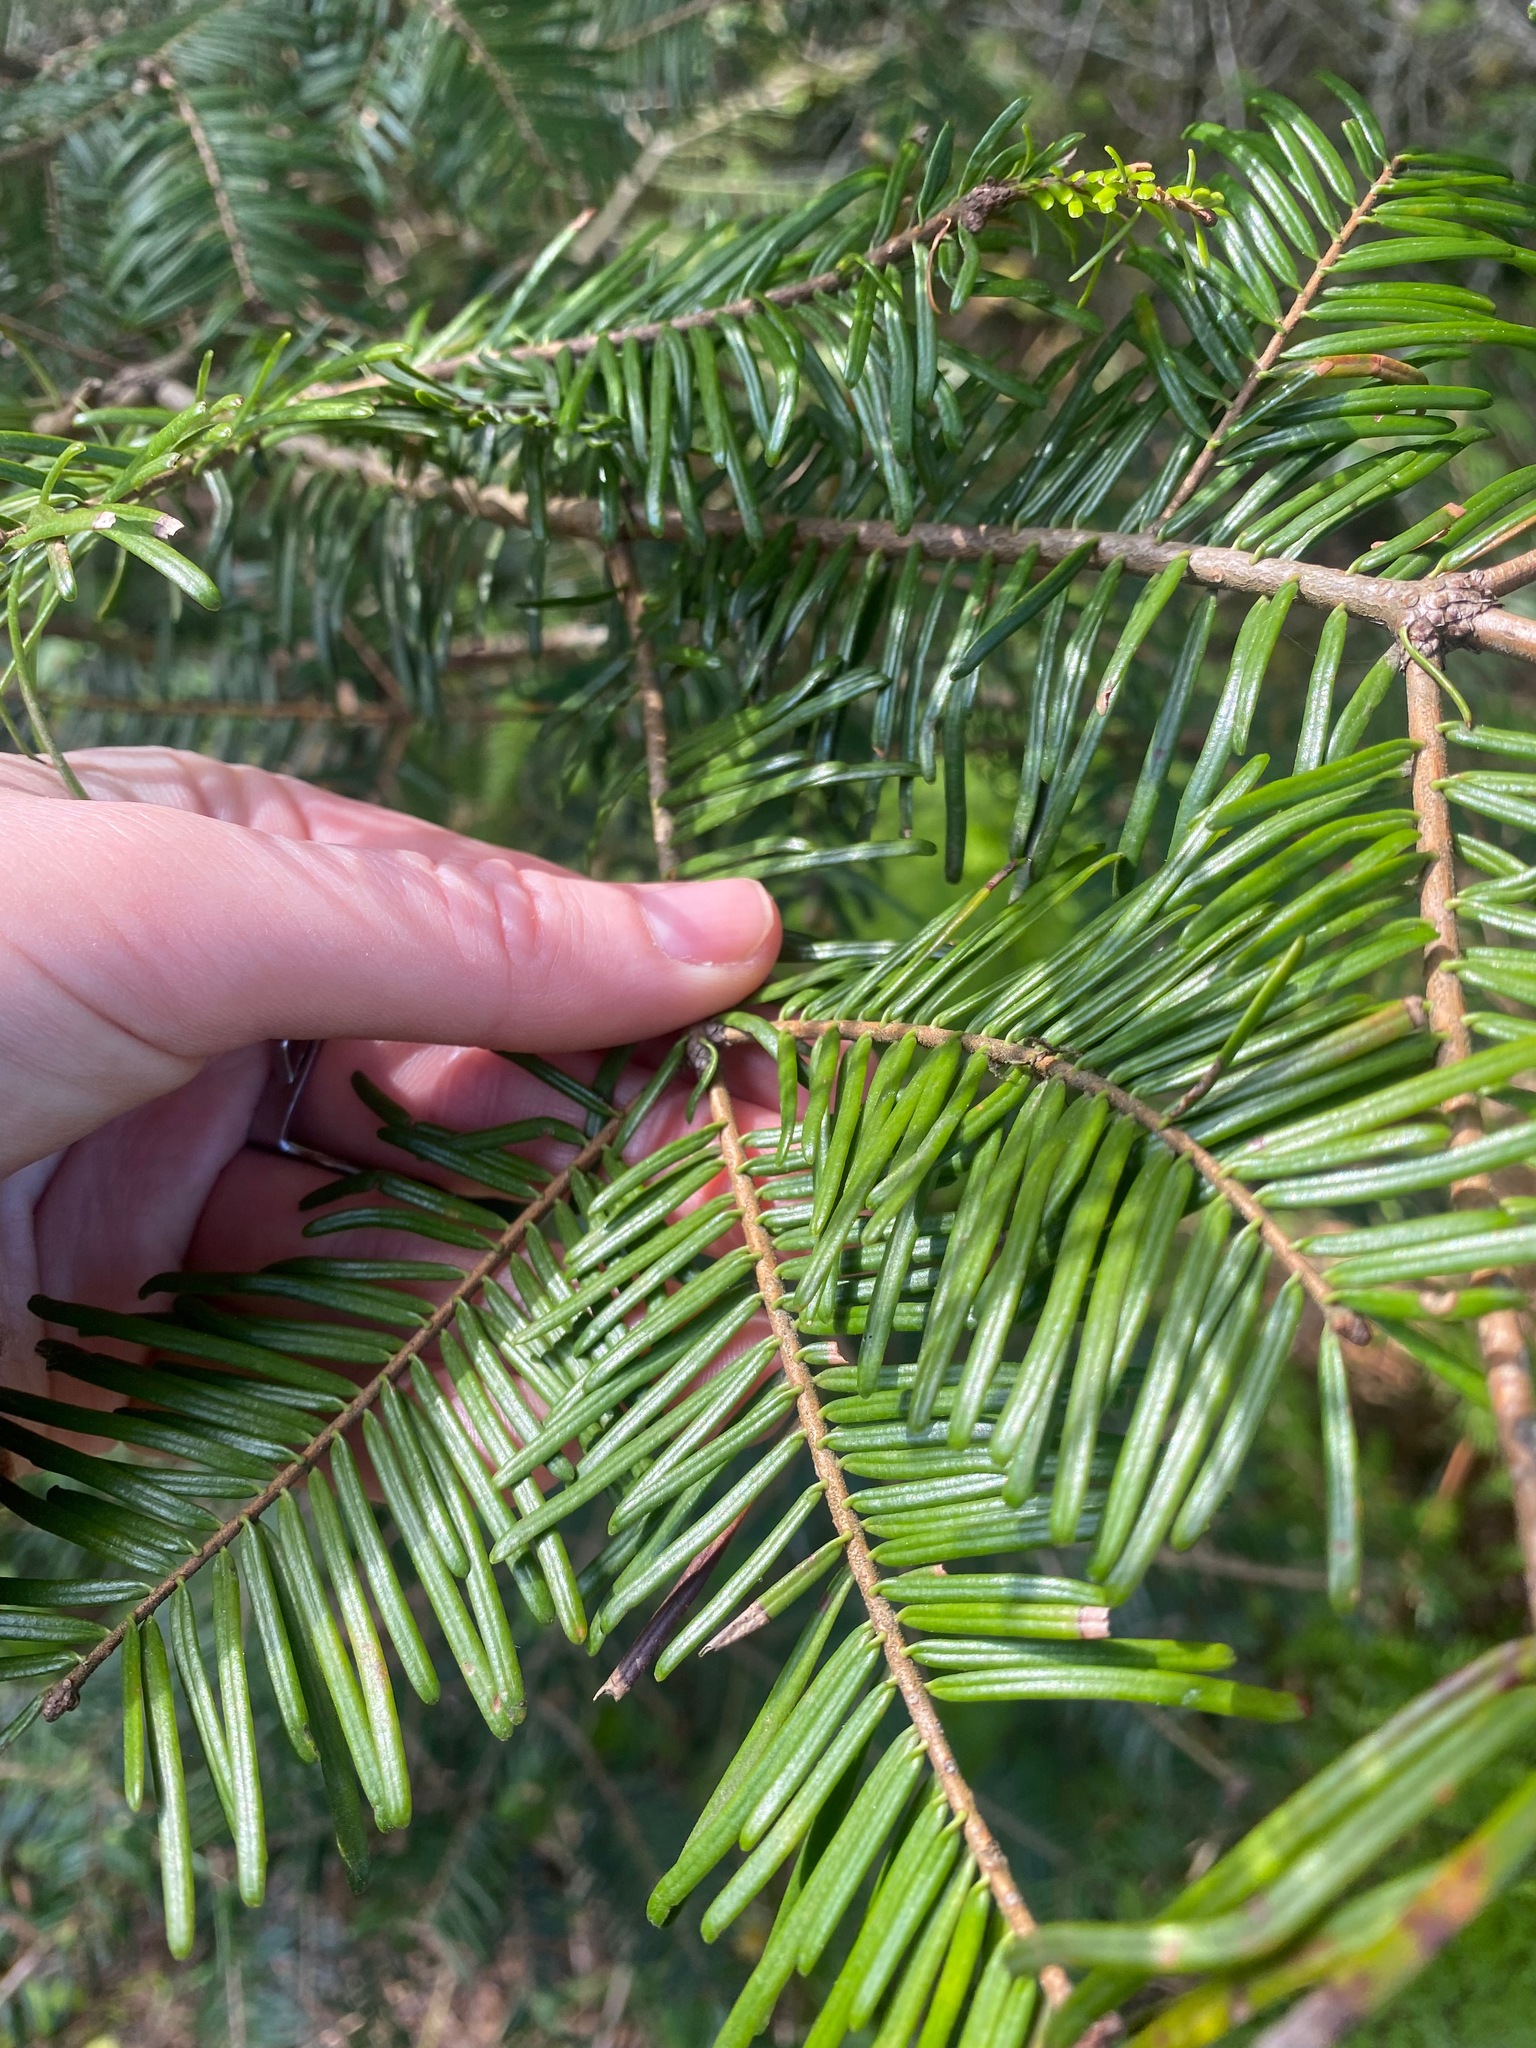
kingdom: Plantae
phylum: Tracheophyta
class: Pinopsida
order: Pinales
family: Pinaceae
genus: Abies
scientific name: Abies grandis
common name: Giant fir
